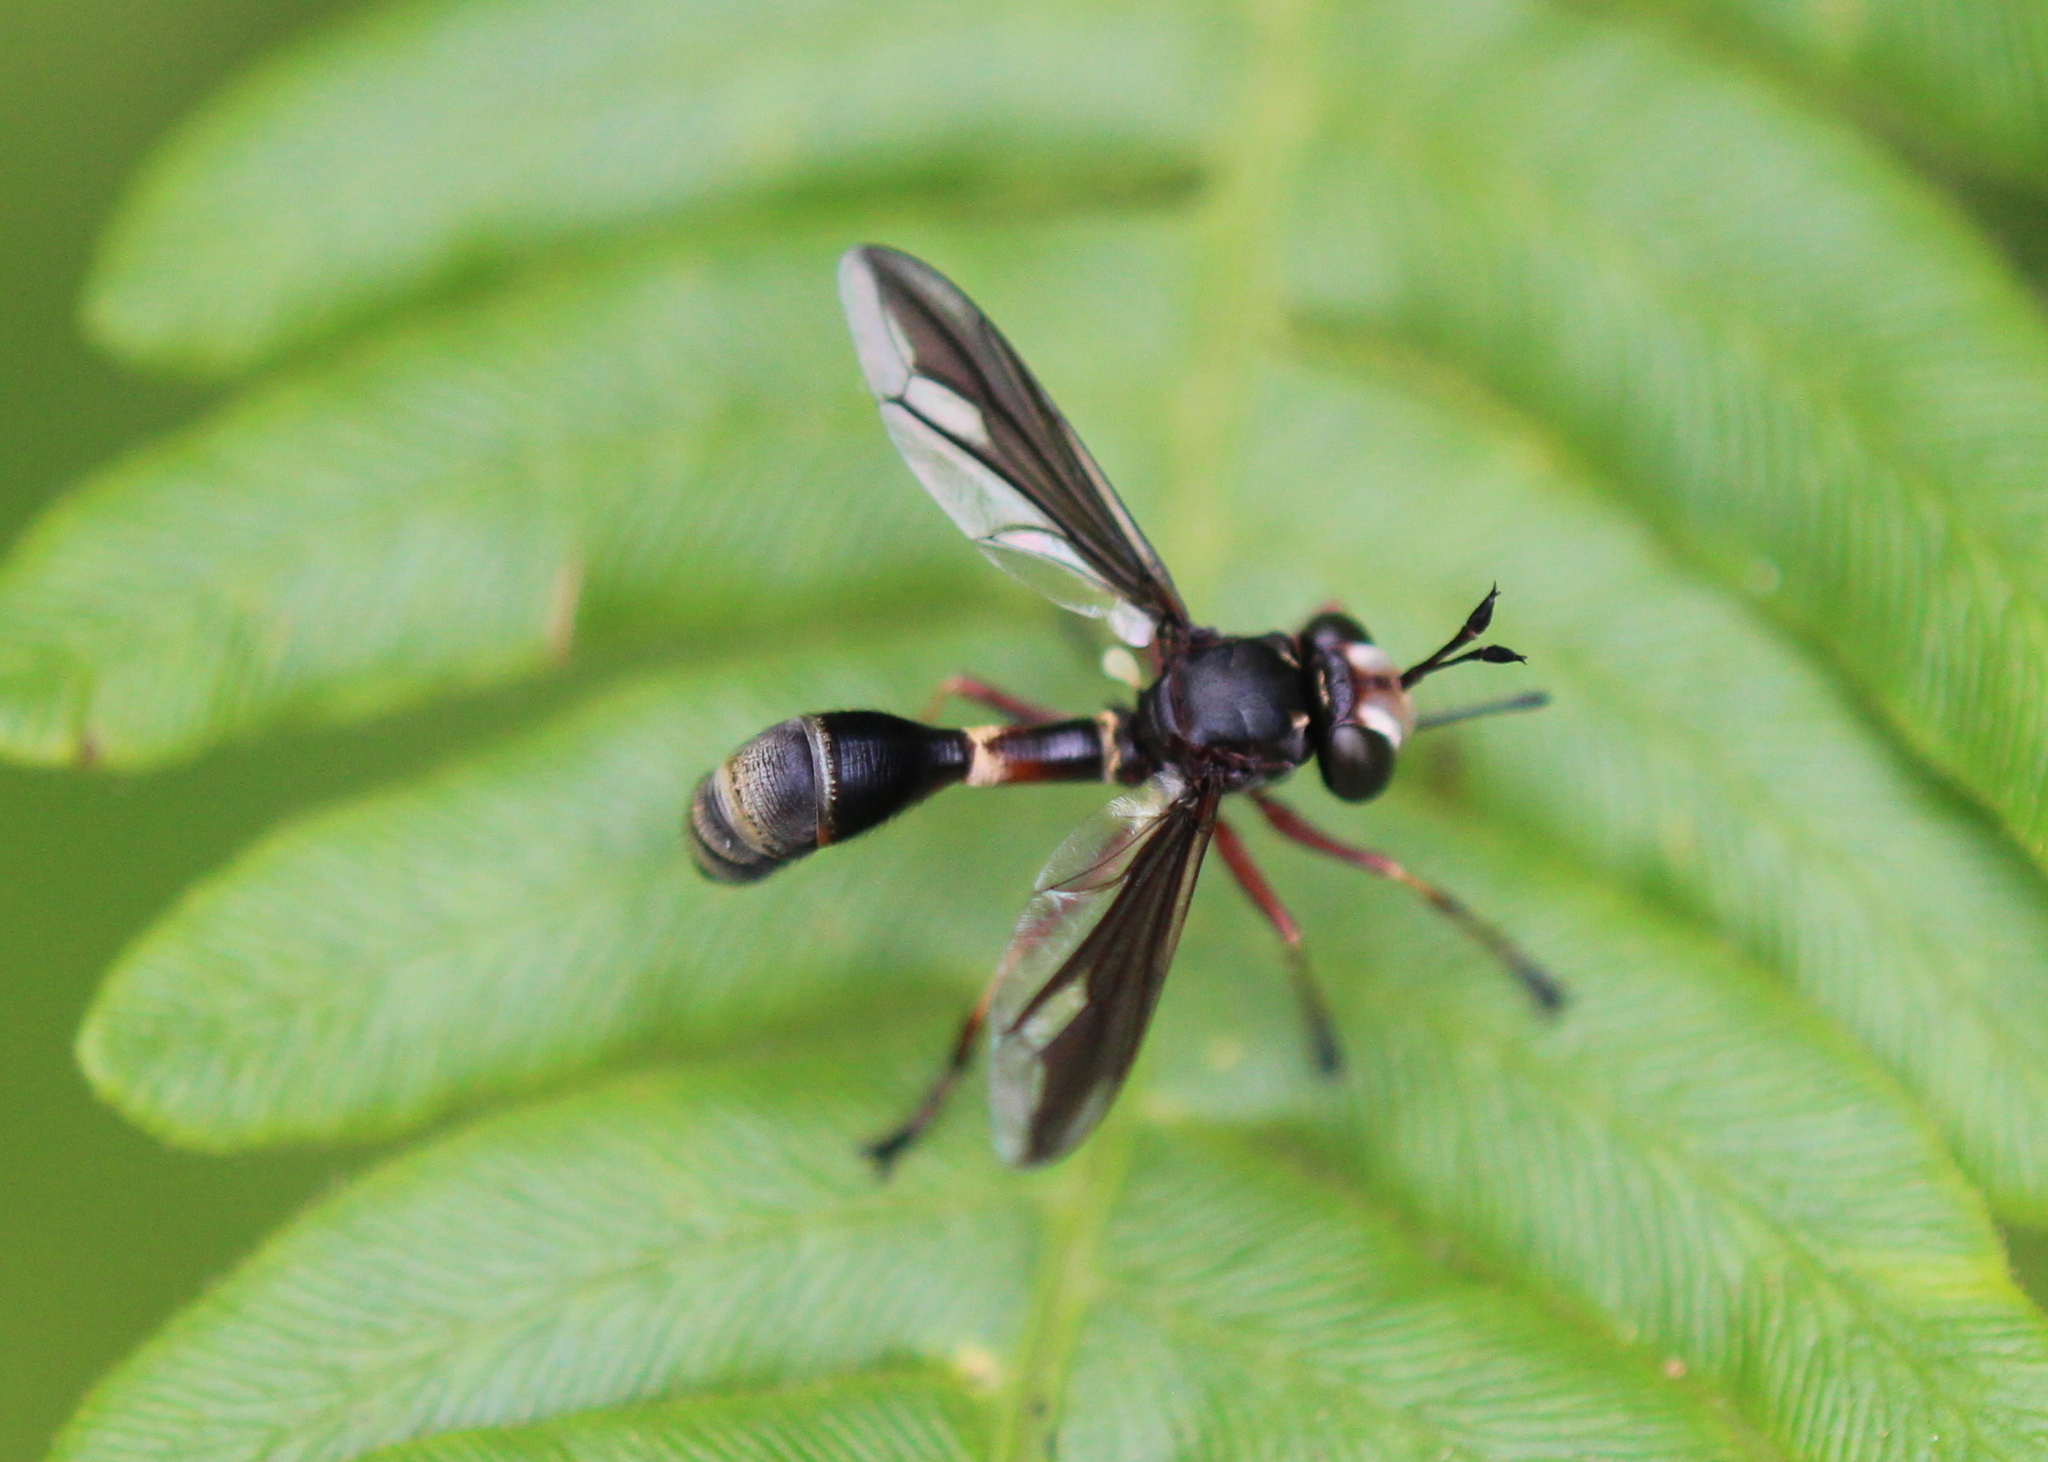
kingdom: Animalia
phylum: Arthropoda
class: Insecta
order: Diptera
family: Conopidae
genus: Physocephala
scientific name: Physocephala furcillata
